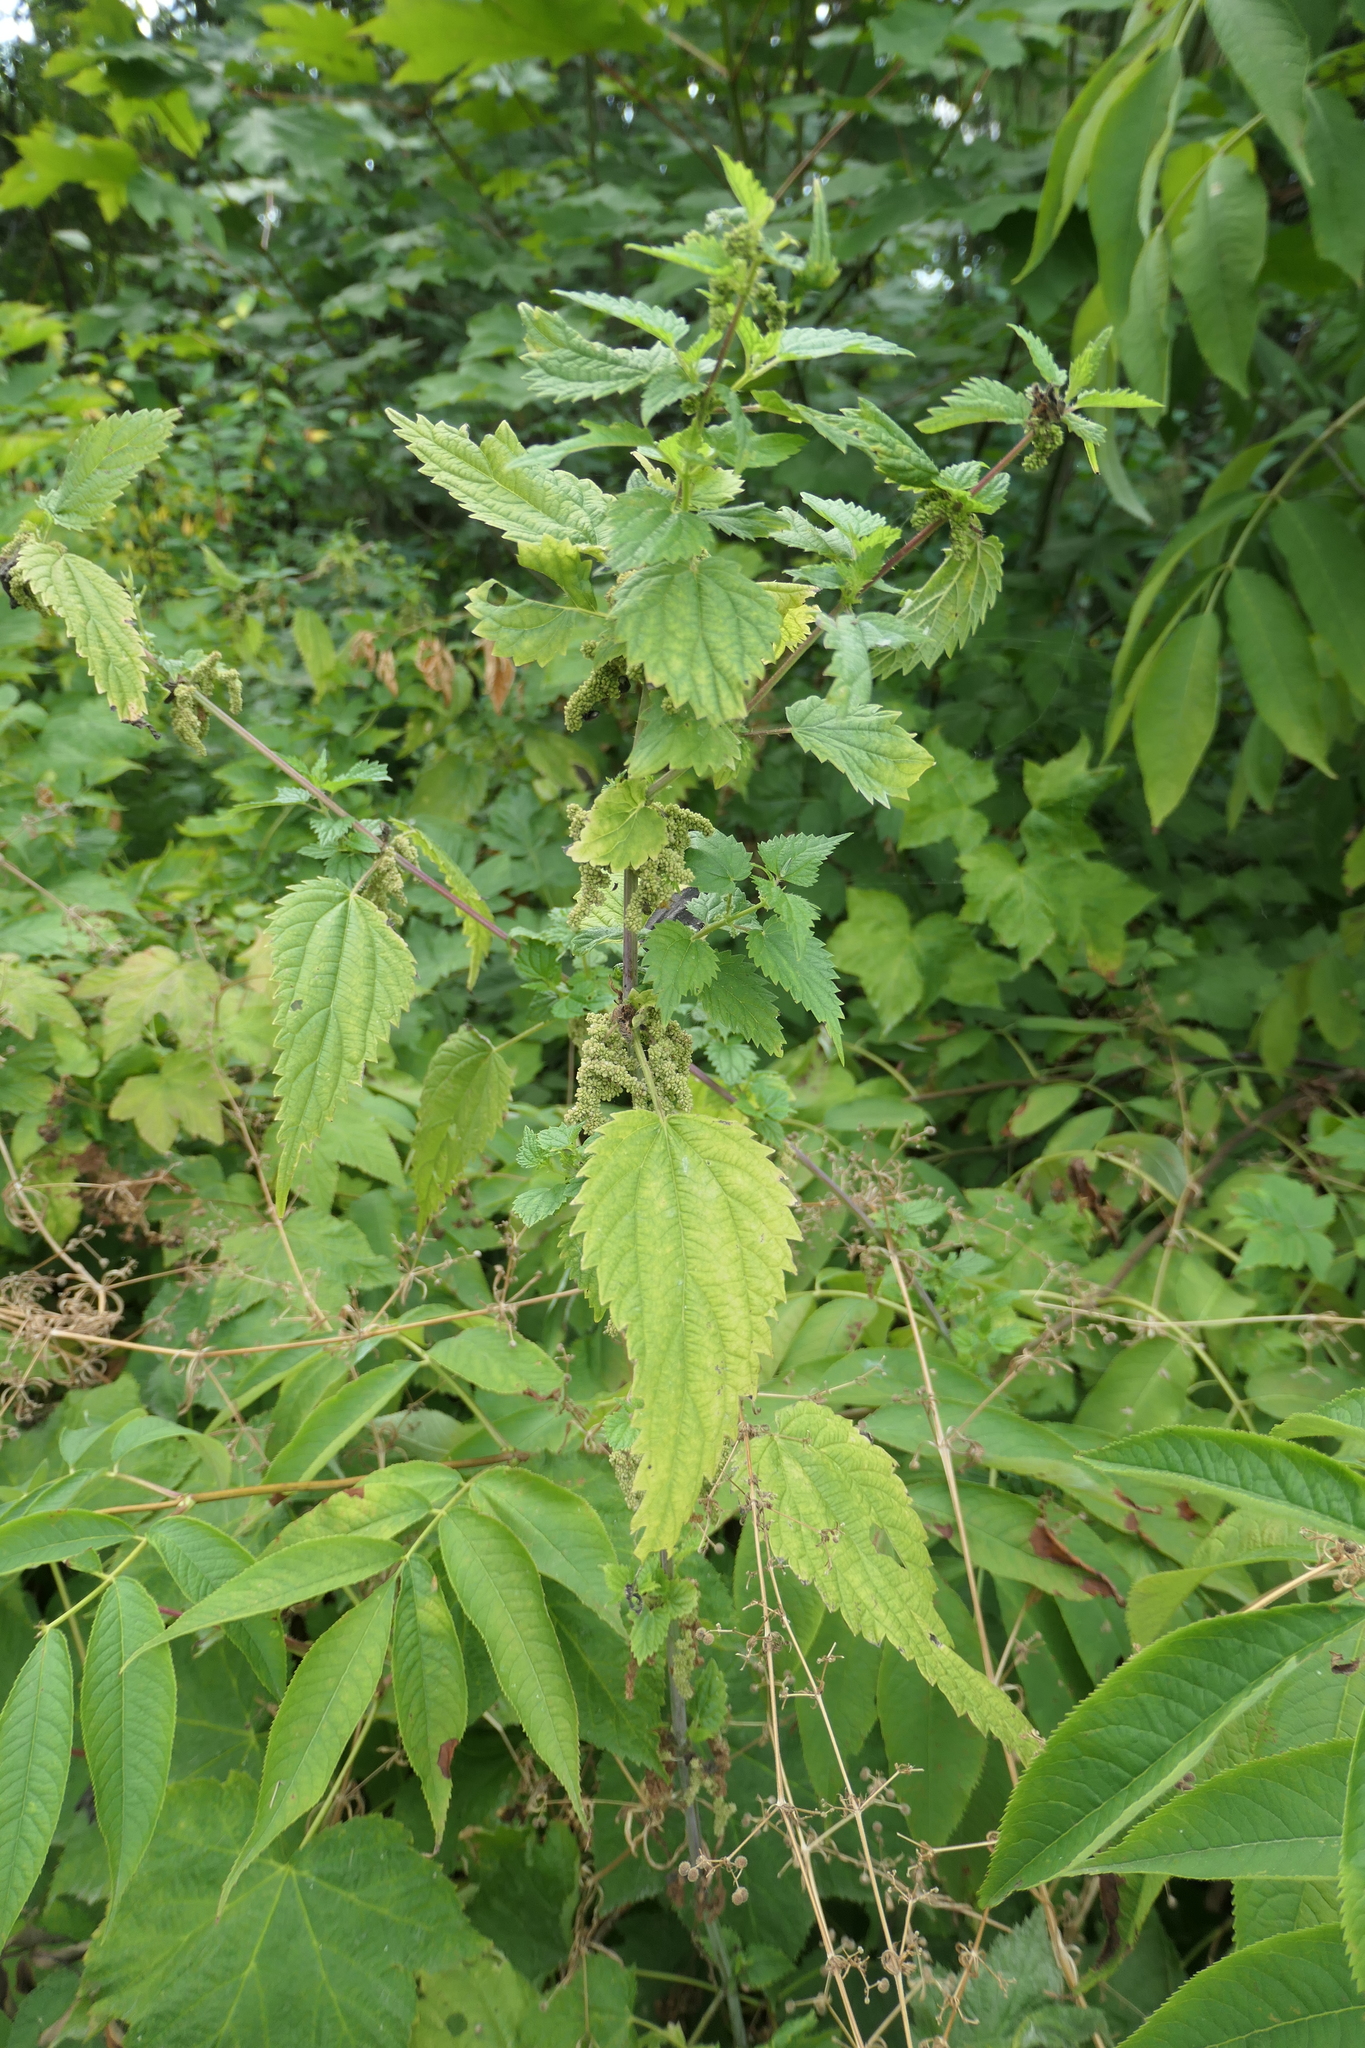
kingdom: Plantae
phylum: Tracheophyta
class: Magnoliopsida
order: Rosales
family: Urticaceae
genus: Urtica
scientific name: Urtica dioica
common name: Common nettle
